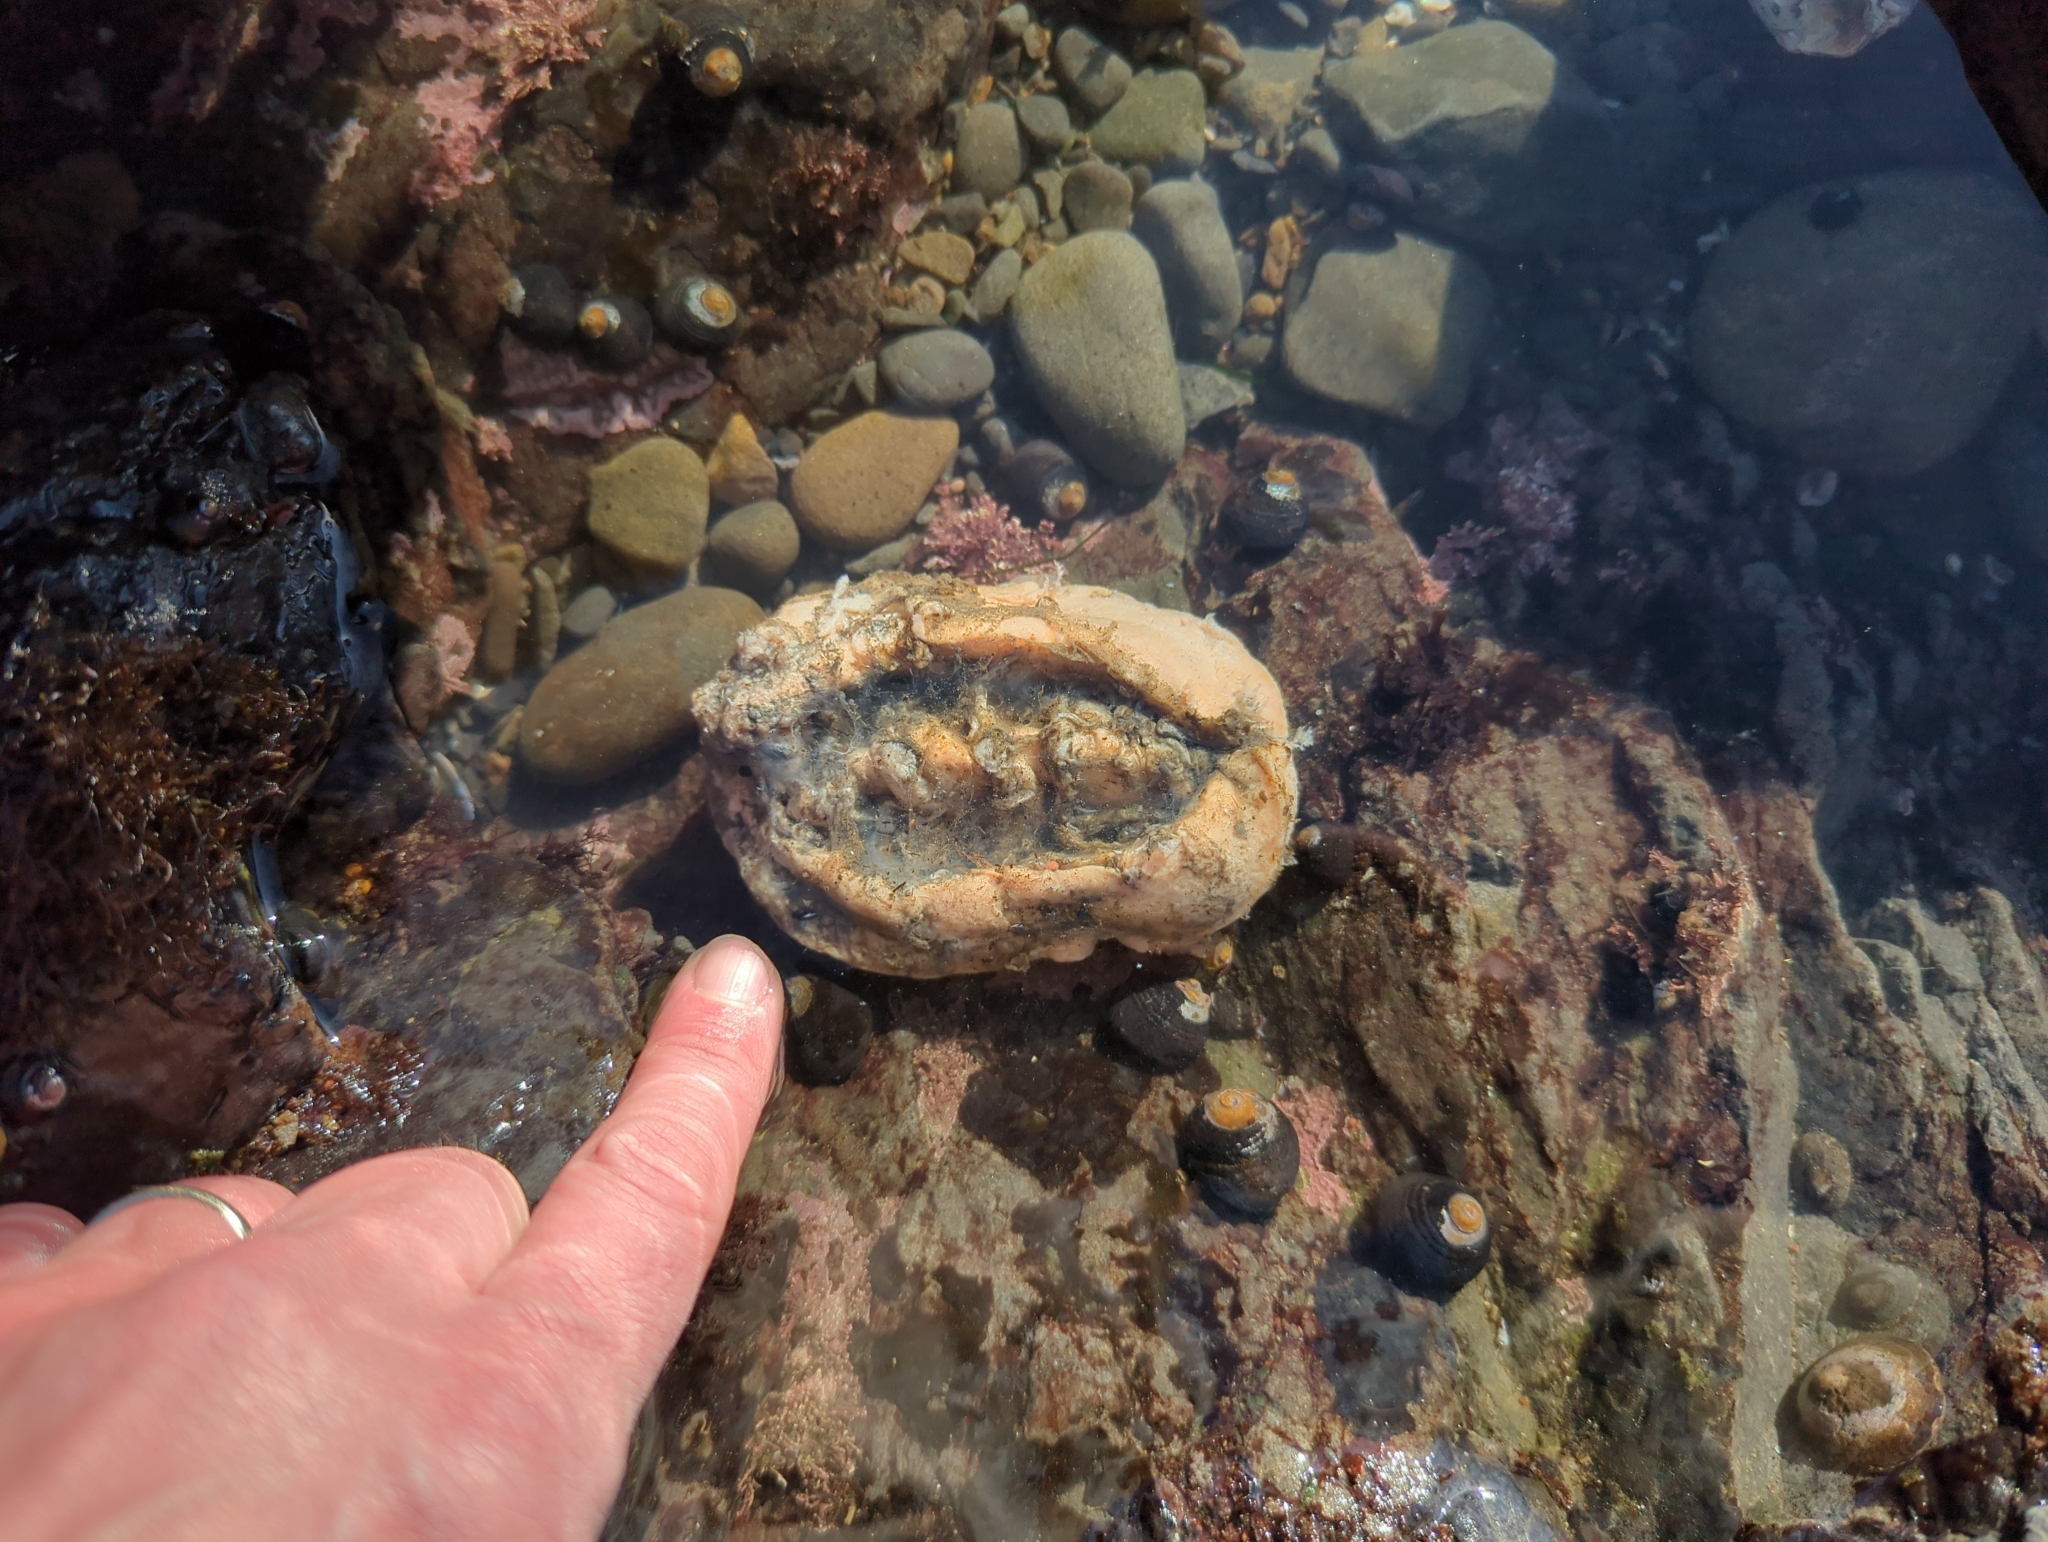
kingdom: Animalia
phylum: Mollusca
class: Polyplacophora
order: Chitonida
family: Acanthochitonidae
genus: Cryptochiton
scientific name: Cryptochiton stelleri
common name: Giant pacific chiton
